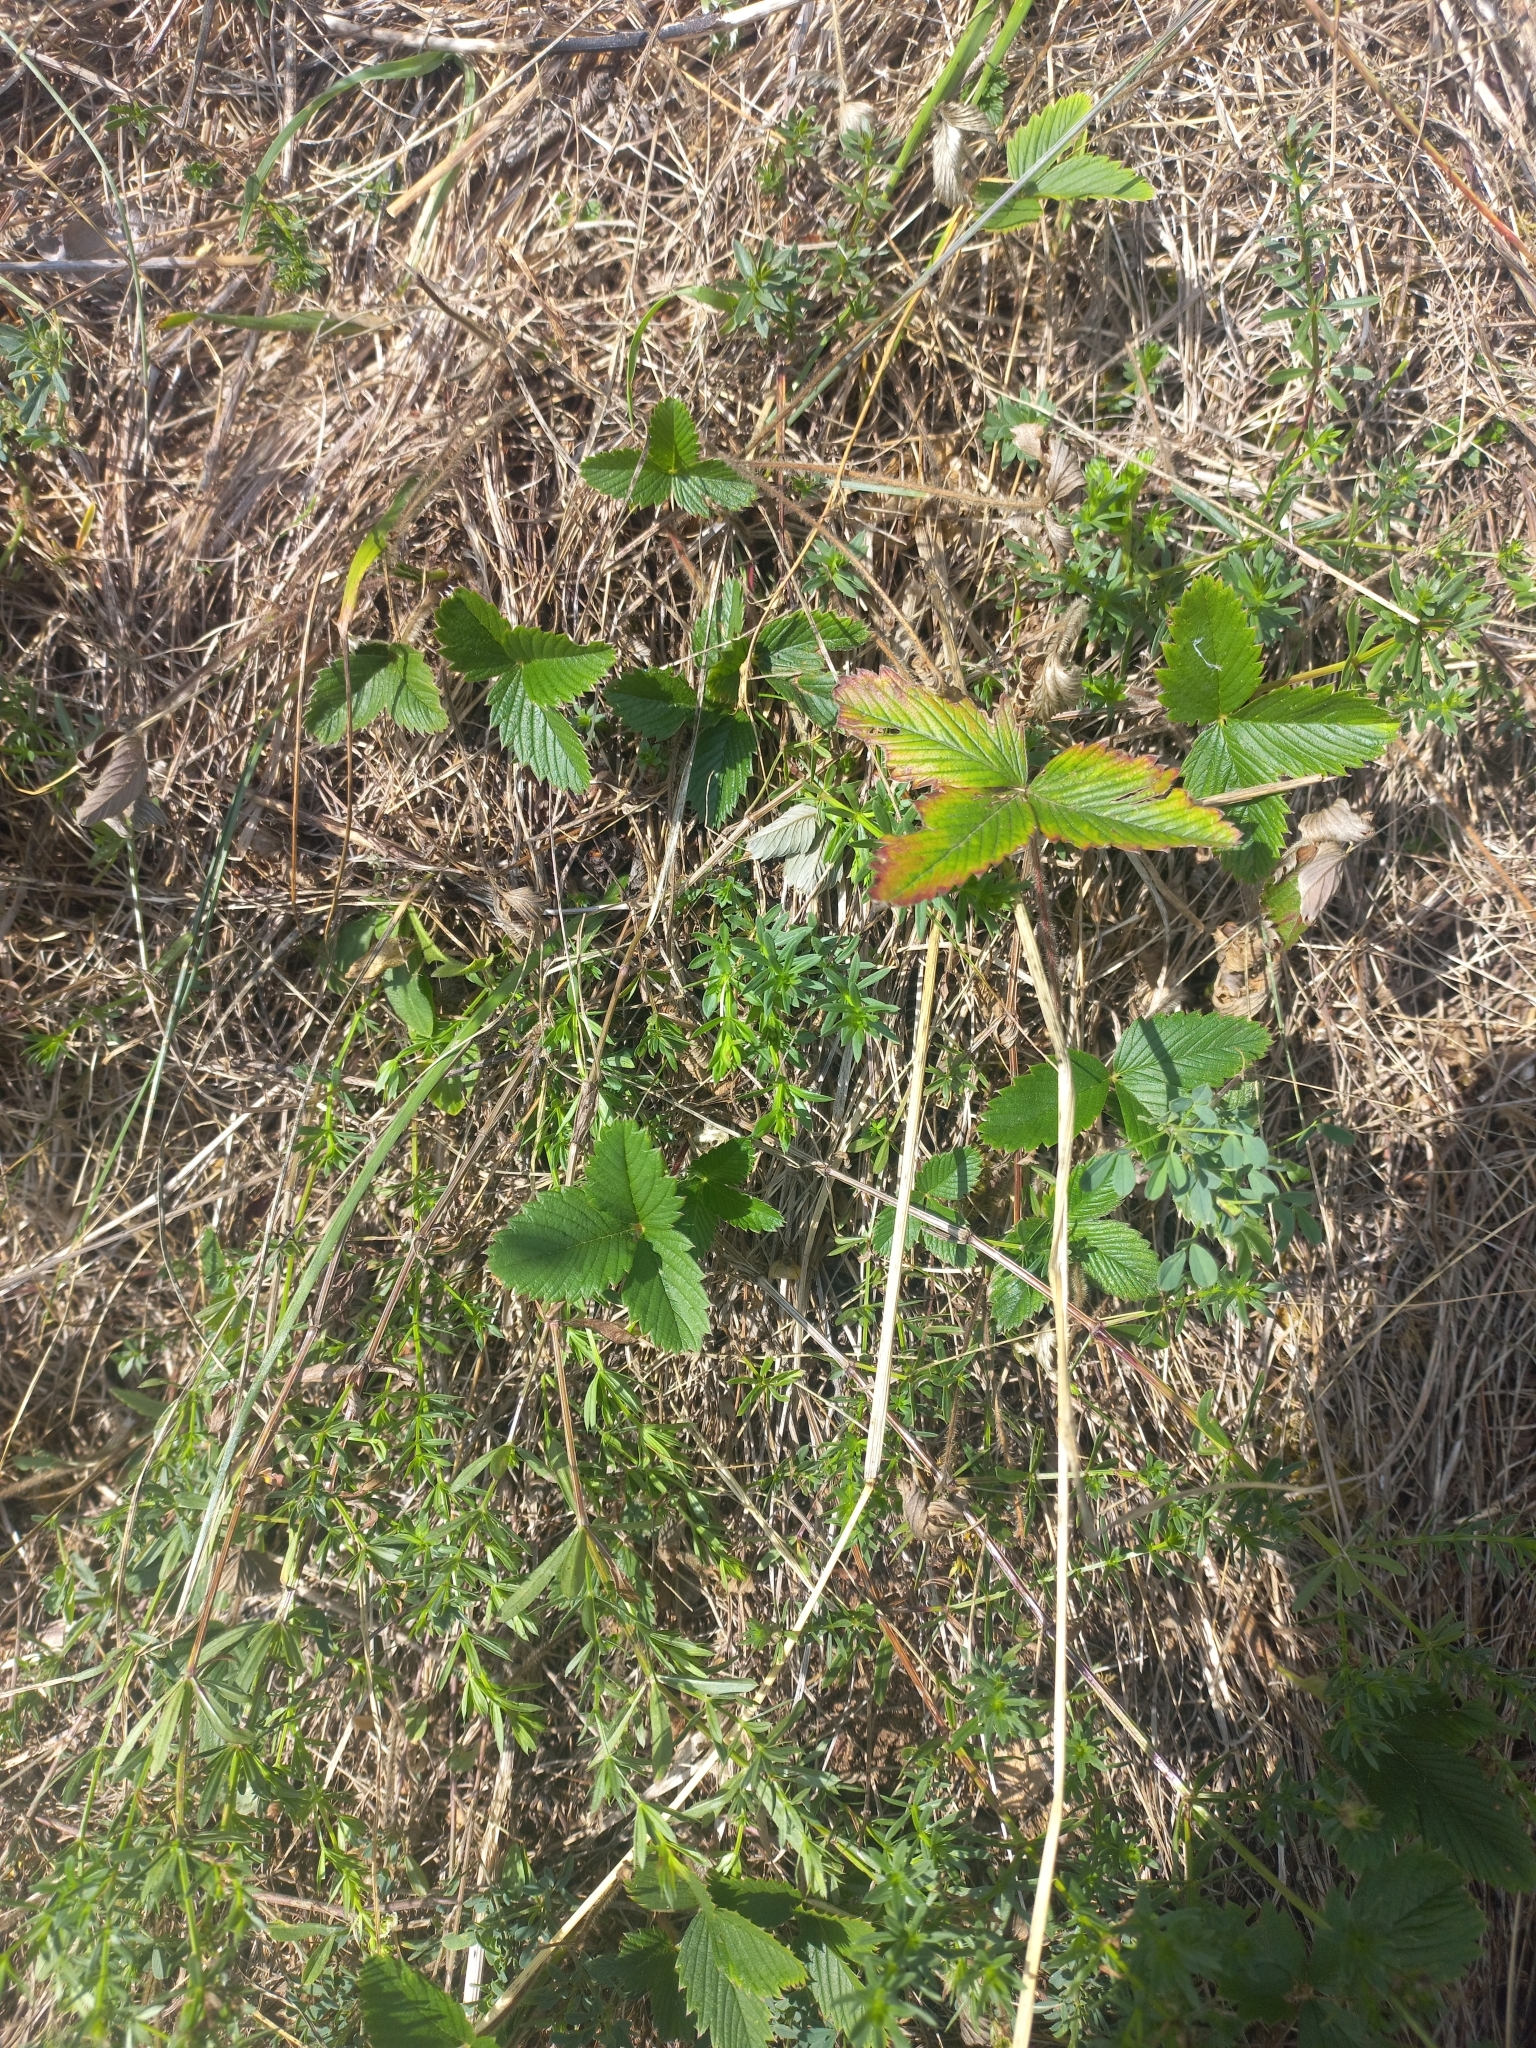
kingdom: Plantae
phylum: Tracheophyta
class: Magnoliopsida
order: Rosales
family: Rosaceae
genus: Fragaria
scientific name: Fragaria viridis
